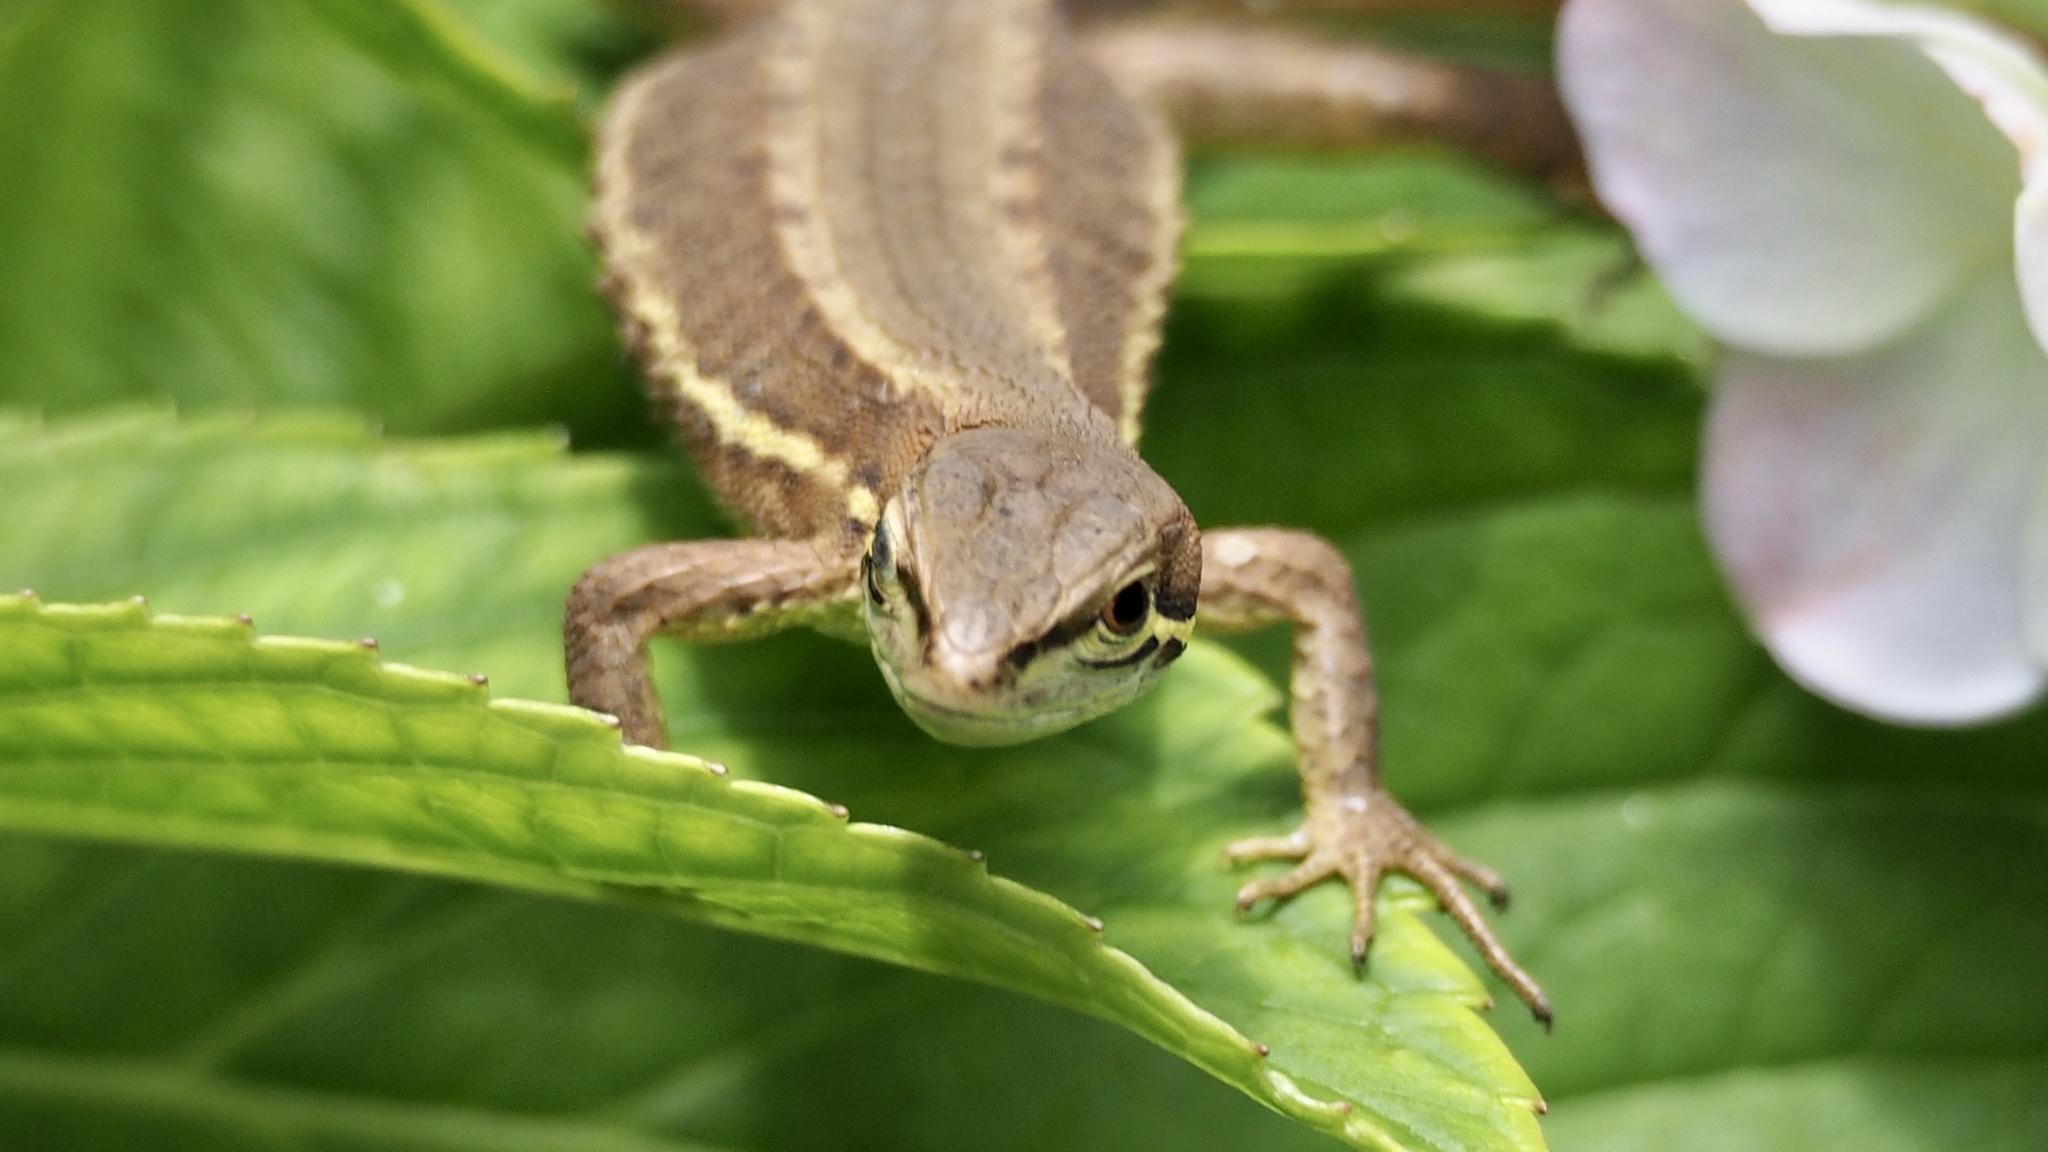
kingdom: Animalia
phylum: Chordata
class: Squamata
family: Lacertidae
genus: Takydromus
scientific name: Takydromus tachydromoides
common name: Japanese grass lizard
